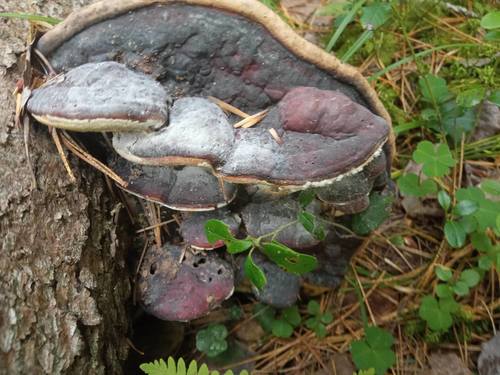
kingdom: Fungi
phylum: Basidiomycota
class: Agaricomycetes
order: Polyporales
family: Fomitopsidaceae
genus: Fomitopsis
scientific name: Fomitopsis pinicola
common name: Red-belted bracket
